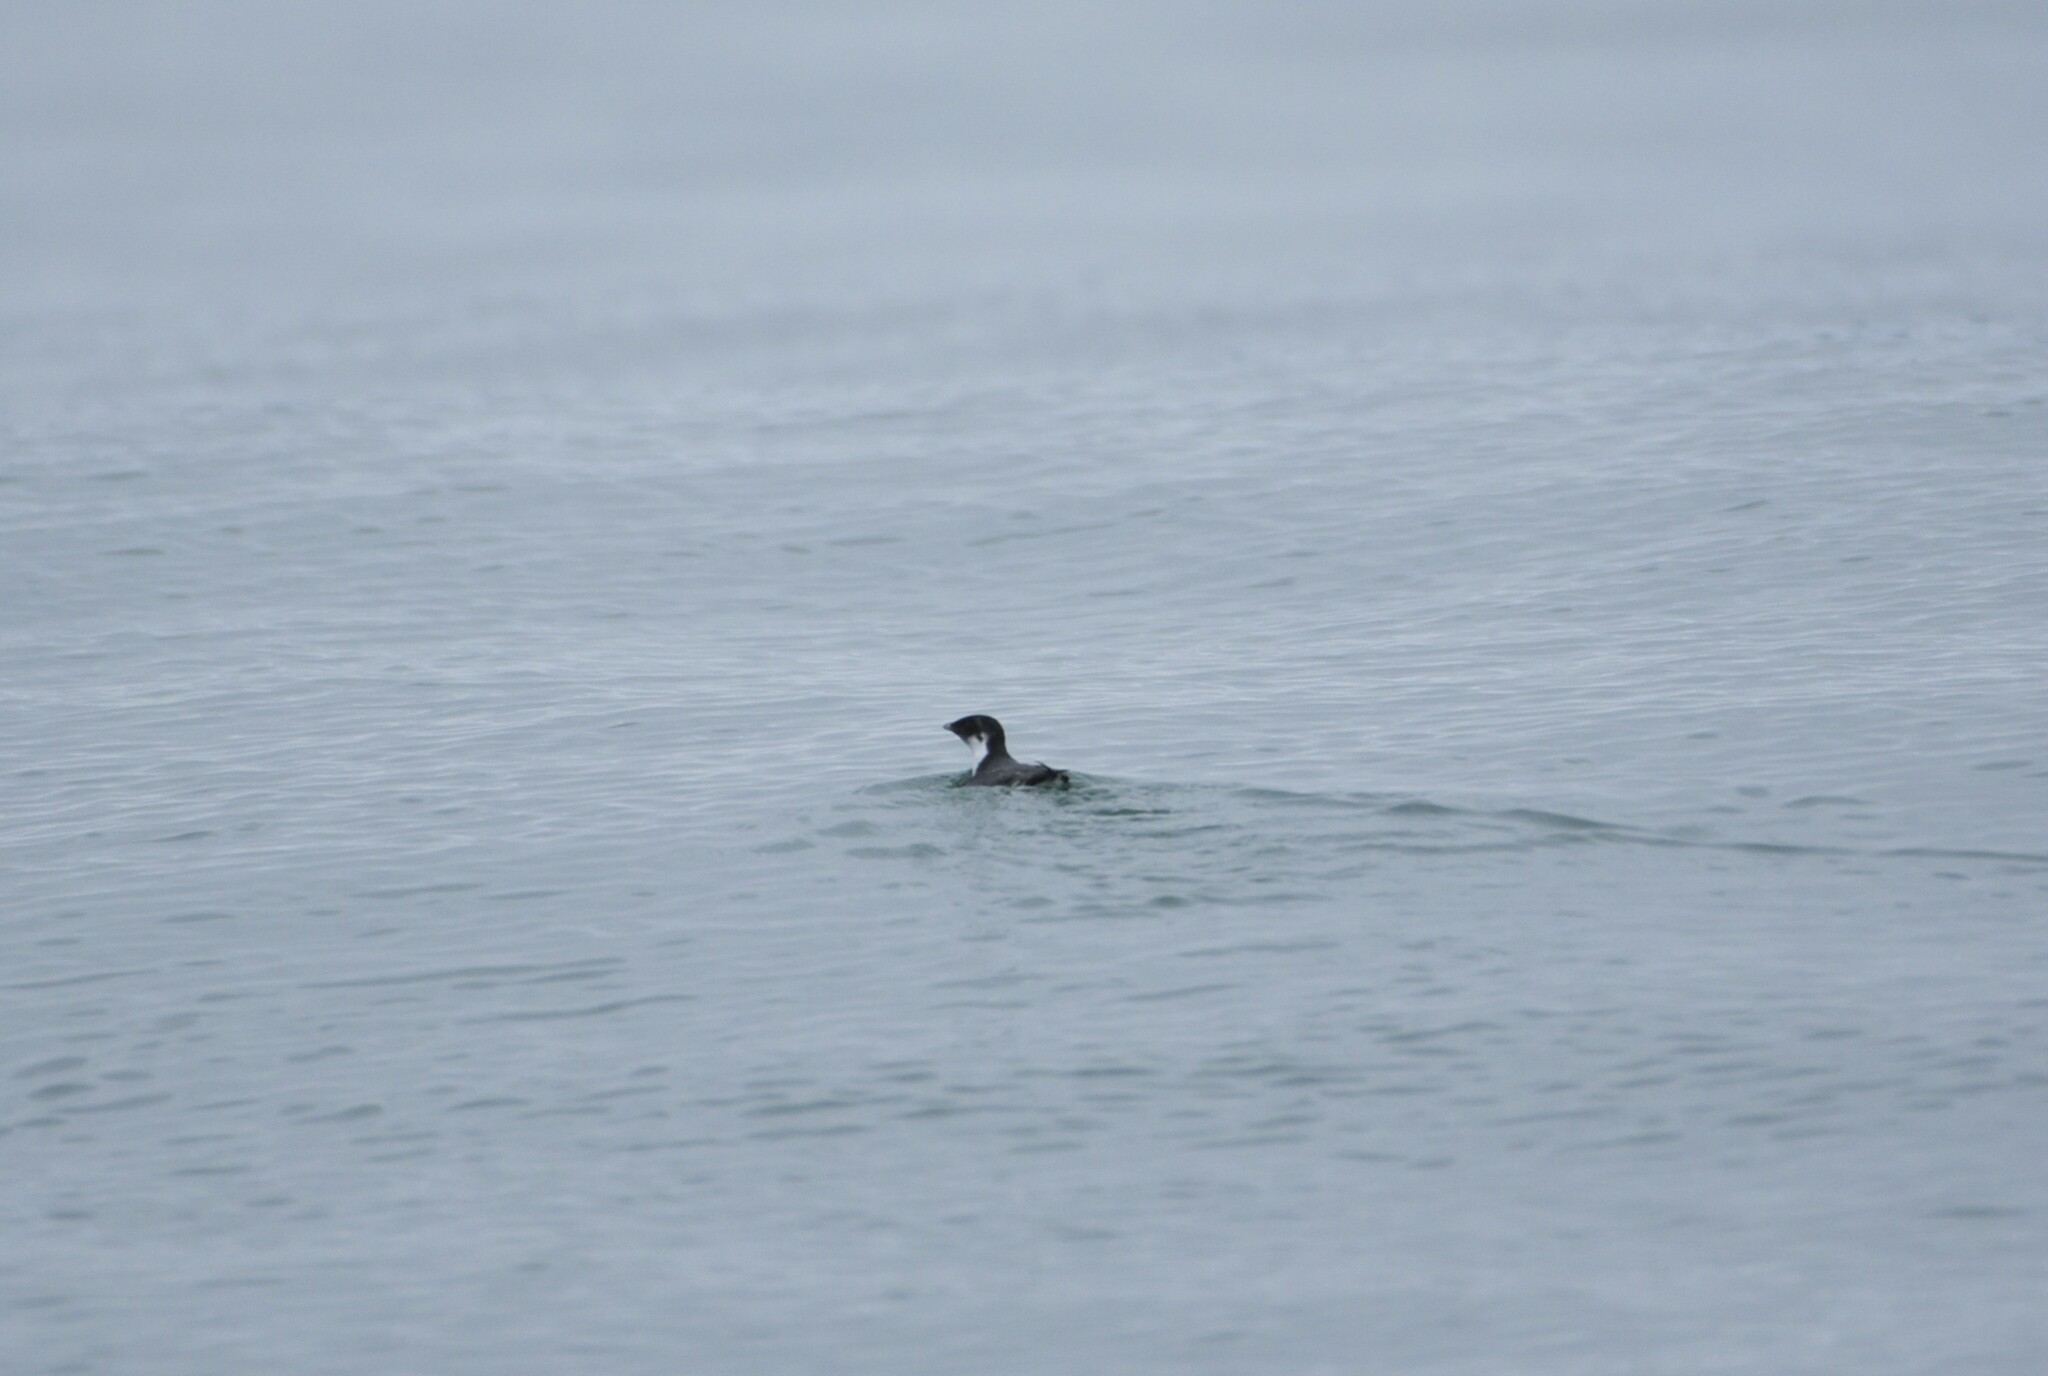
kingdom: Animalia
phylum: Chordata
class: Aves
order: Charadriiformes
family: Alcidae
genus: Synthliboramphus
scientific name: Synthliboramphus antiquus
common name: Ancient murrelet
